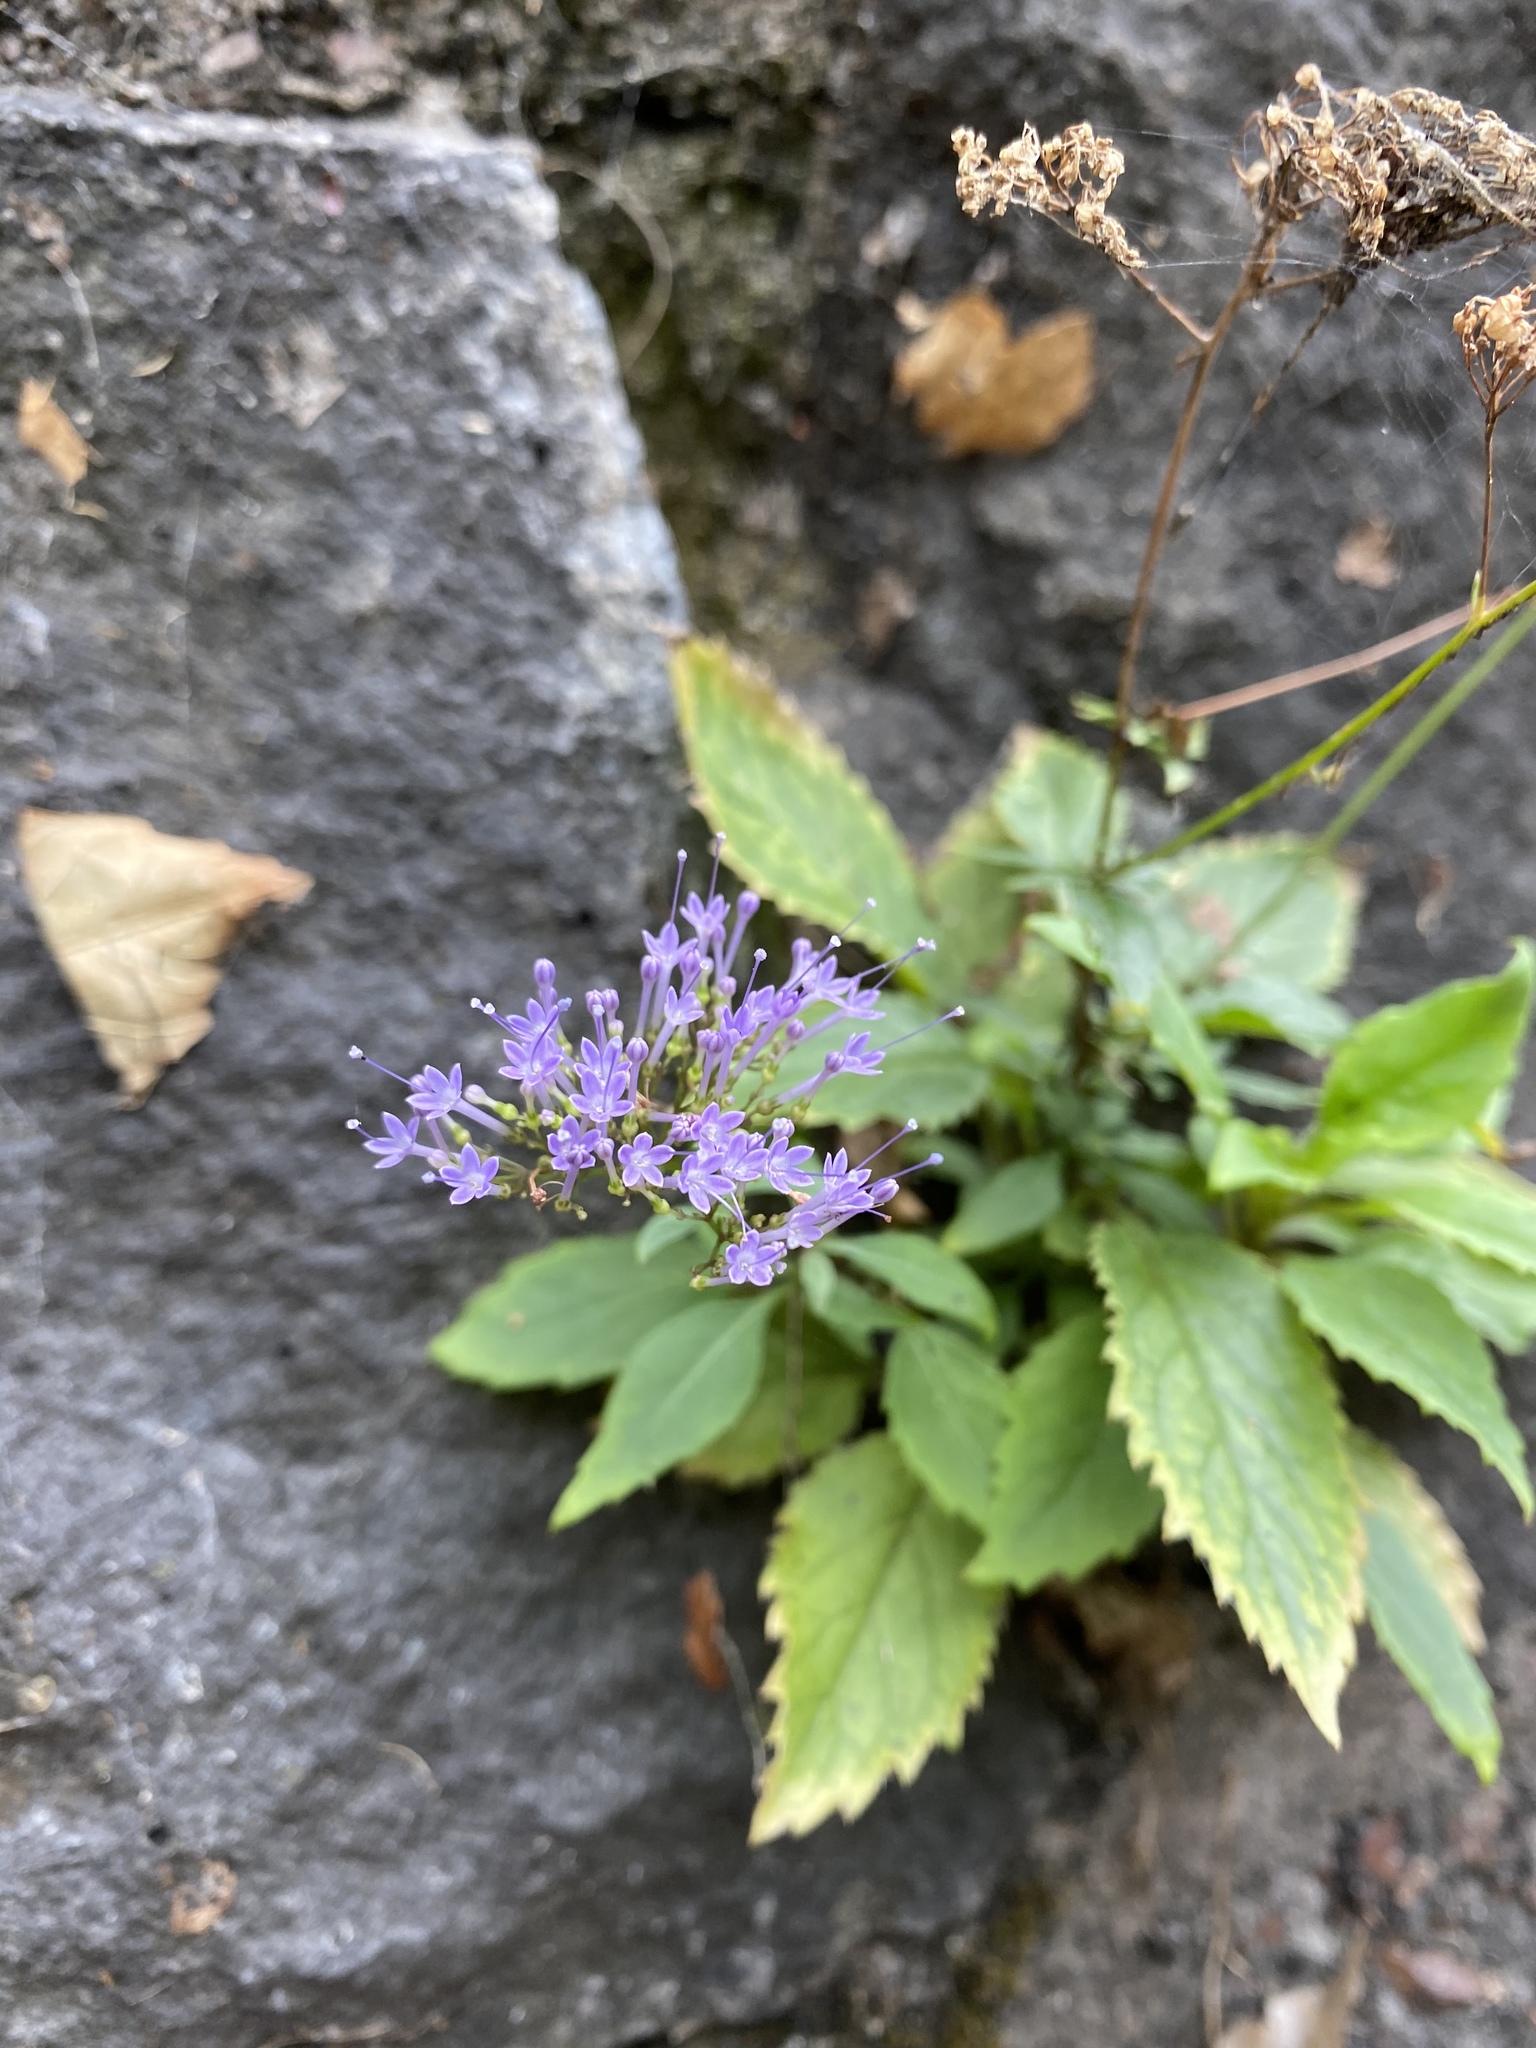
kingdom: Plantae
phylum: Tracheophyta
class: Magnoliopsida
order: Asterales
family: Campanulaceae
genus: Trachelium
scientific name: Trachelium caeruleum
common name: Throatwort
